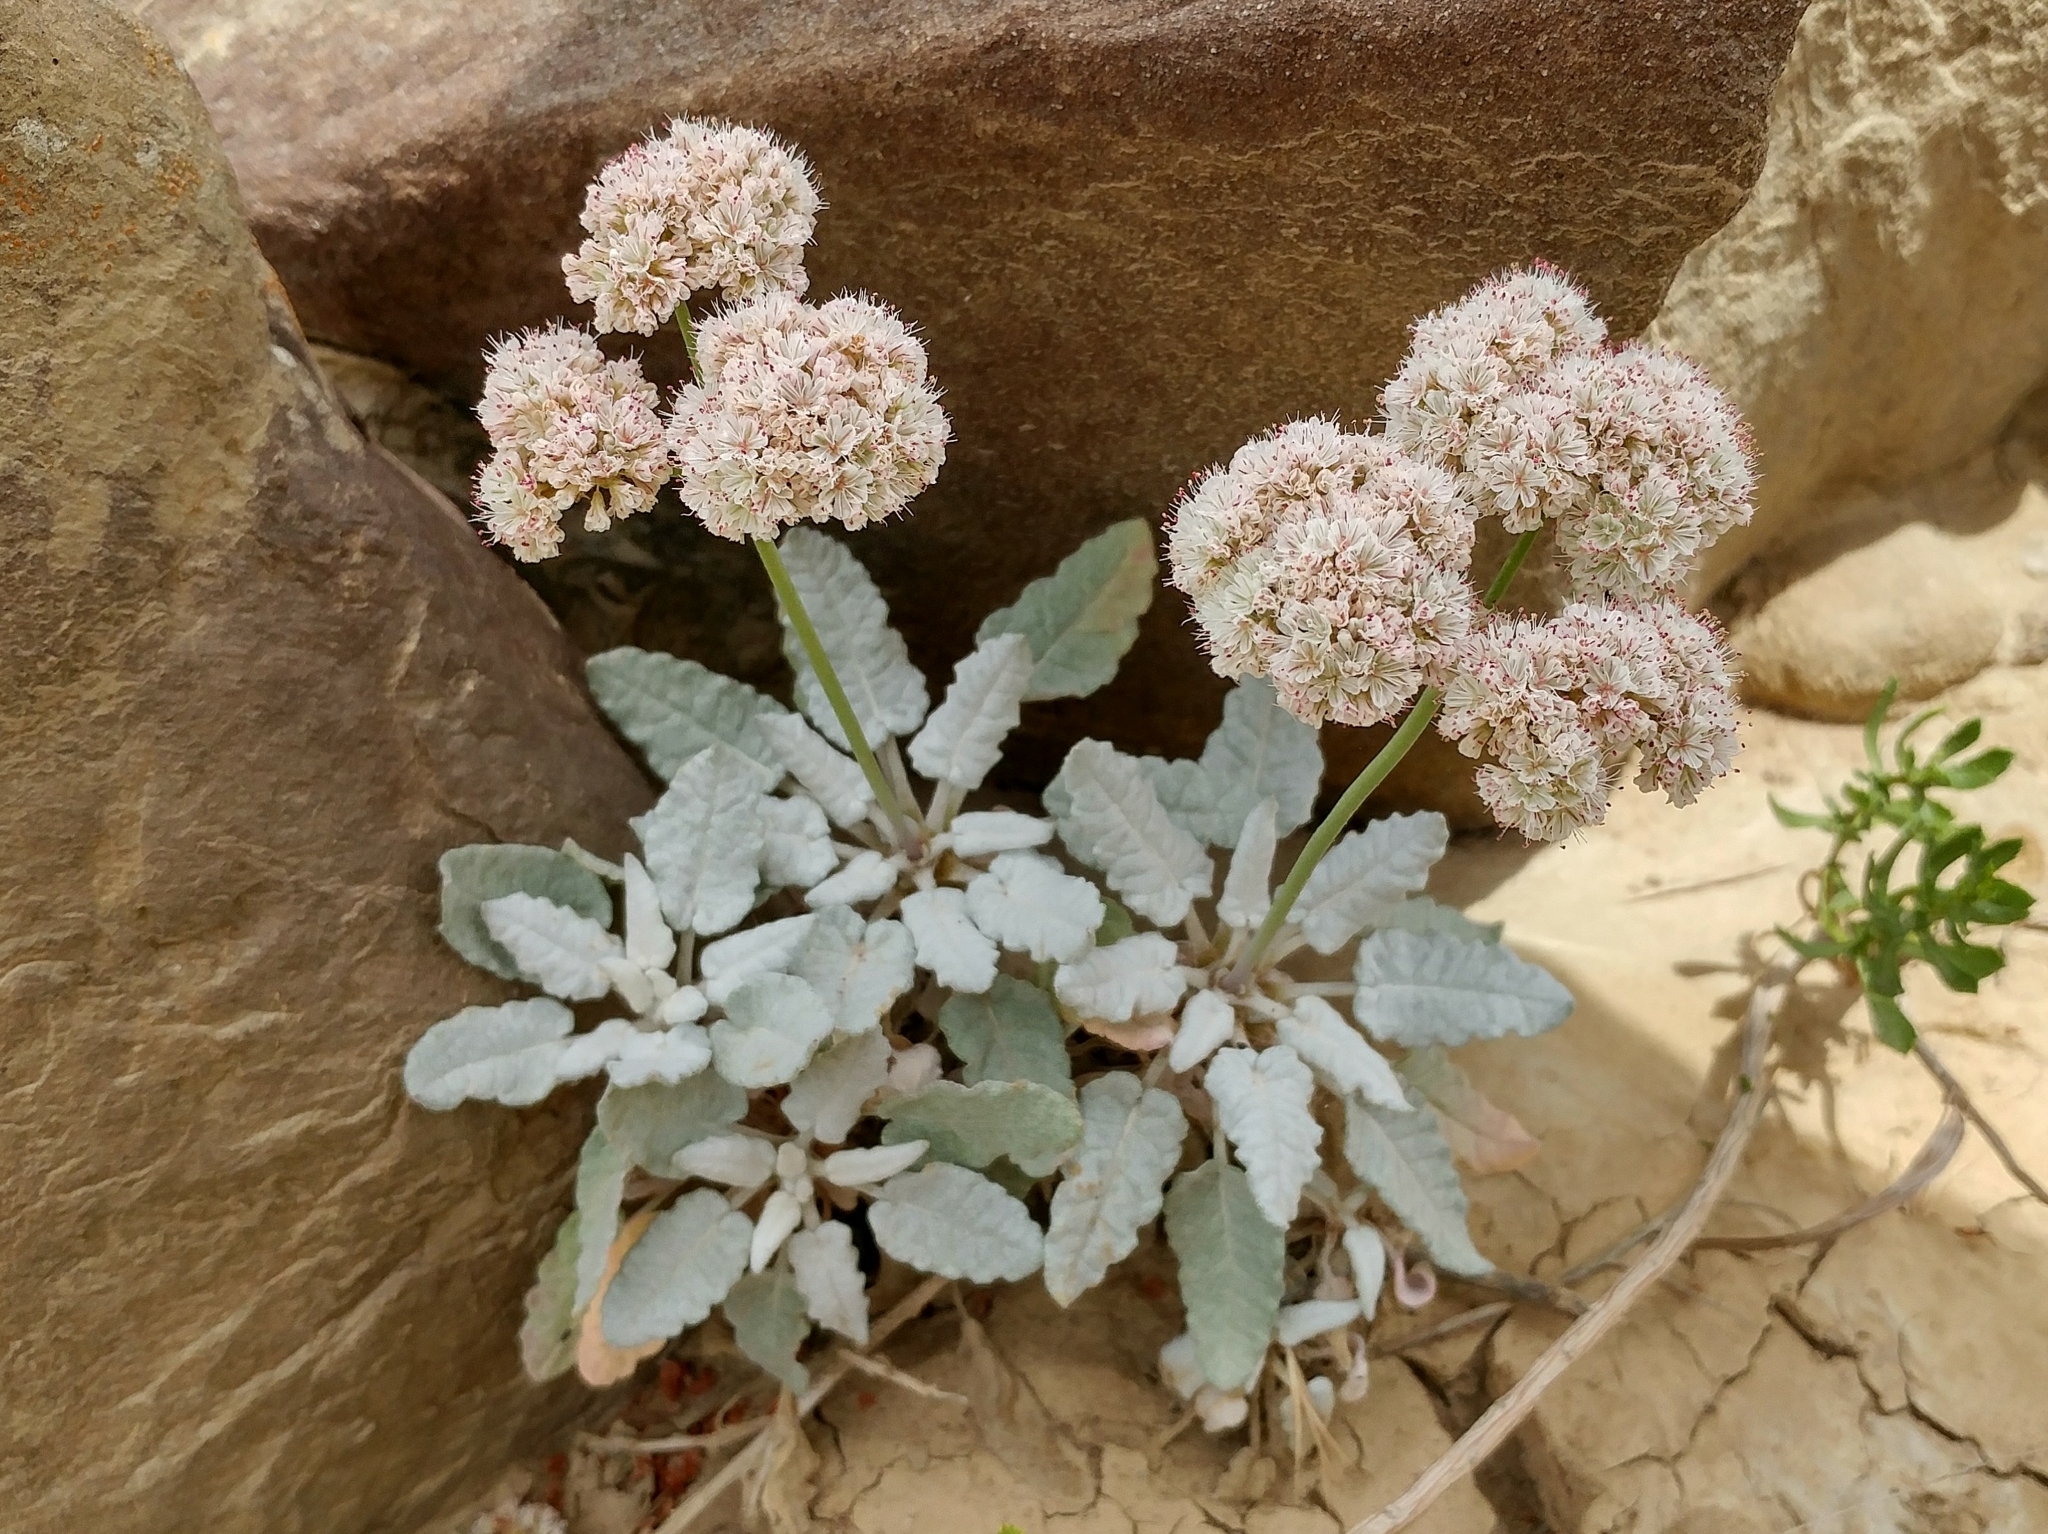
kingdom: Plantae
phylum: Tracheophyta
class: Magnoliopsida
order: Caryophyllales
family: Polygonaceae
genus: Eriogonum
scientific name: Eriogonum grande
